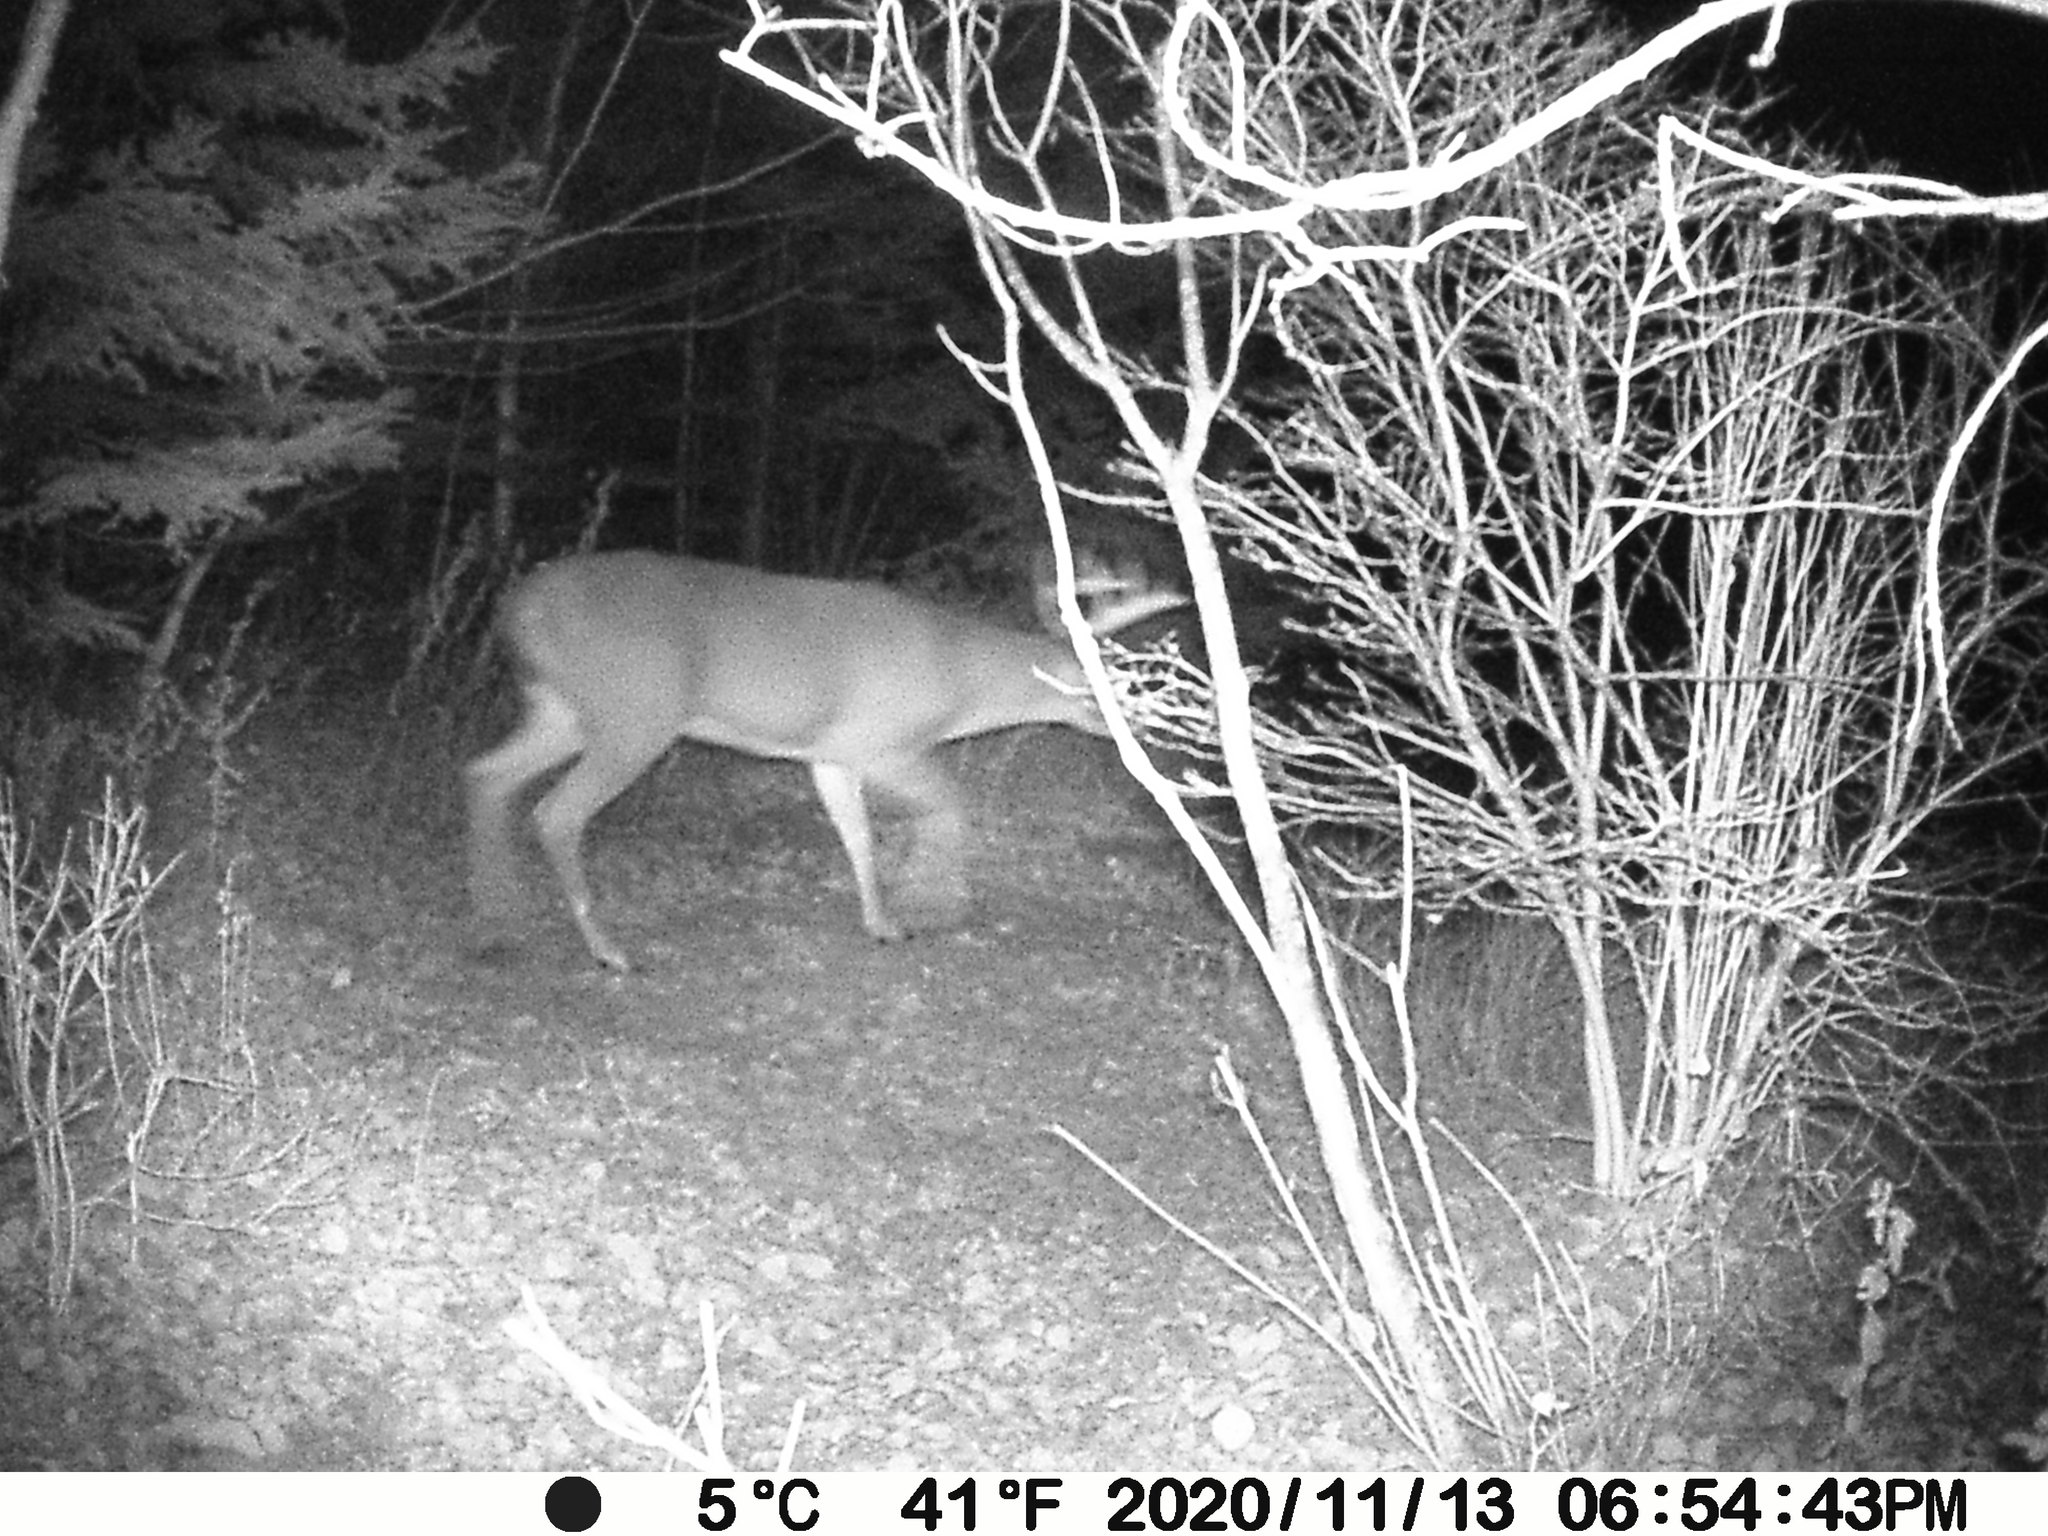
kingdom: Animalia
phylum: Chordata
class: Mammalia
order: Artiodactyla
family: Cervidae
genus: Odocoileus
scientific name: Odocoileus virginianus
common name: White-tailed deer
